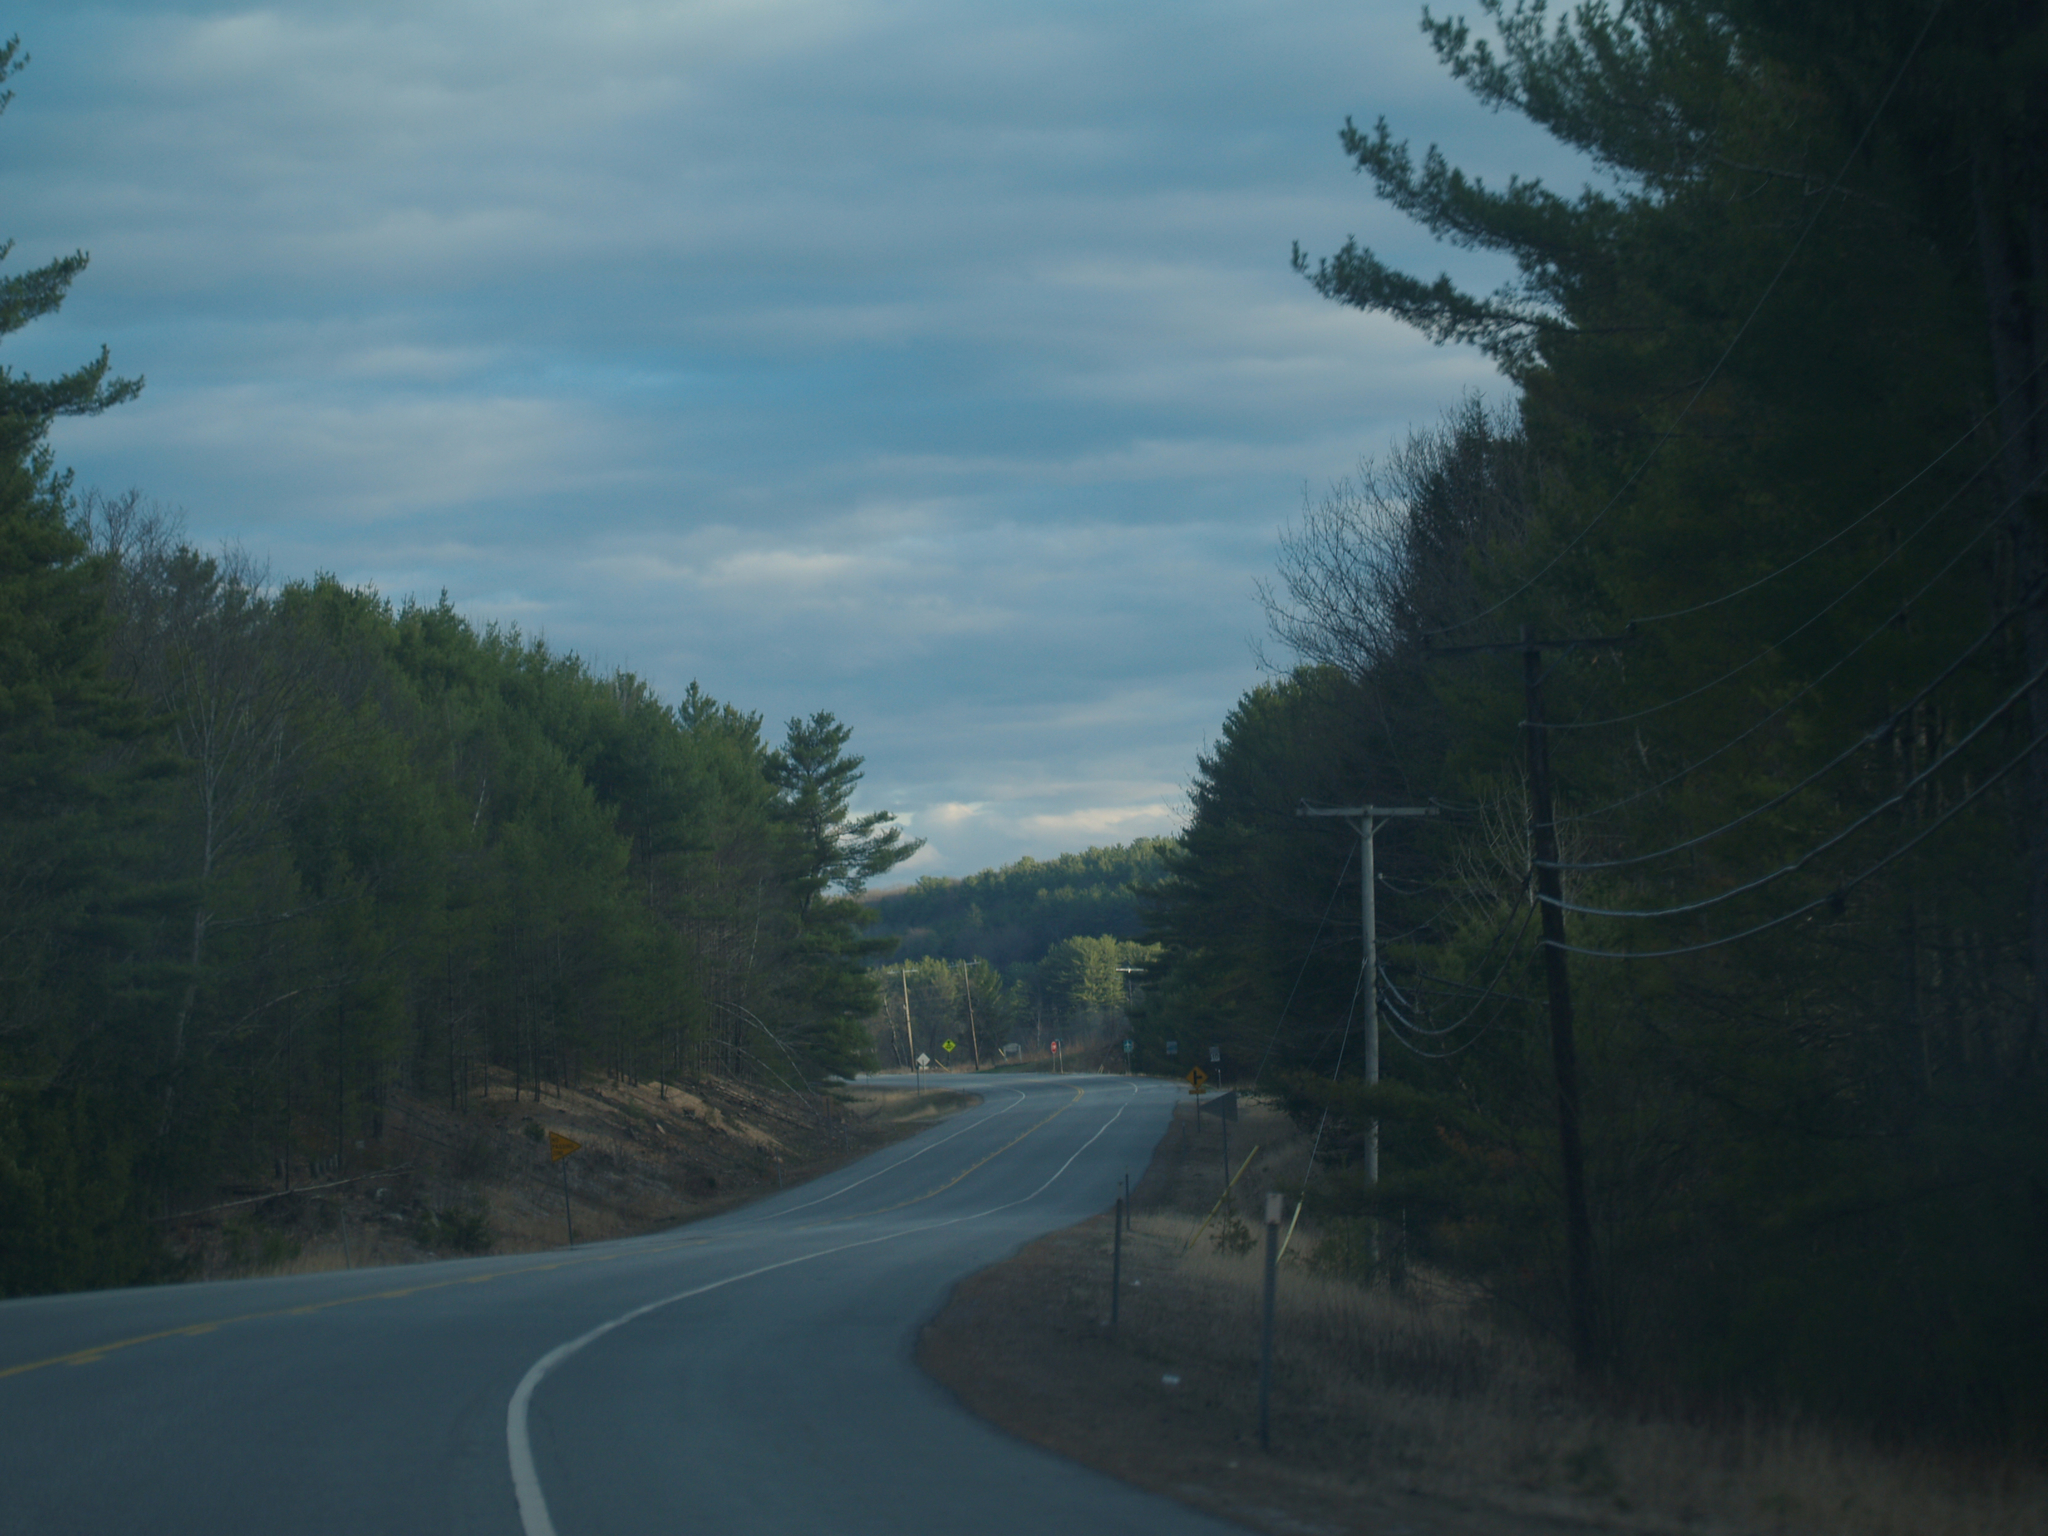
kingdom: Plantae
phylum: Tracheophyta
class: Pinopsida
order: Pinales
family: Pinaceae
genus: Pinus
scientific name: Pinus strobus
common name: Weymouth pine
